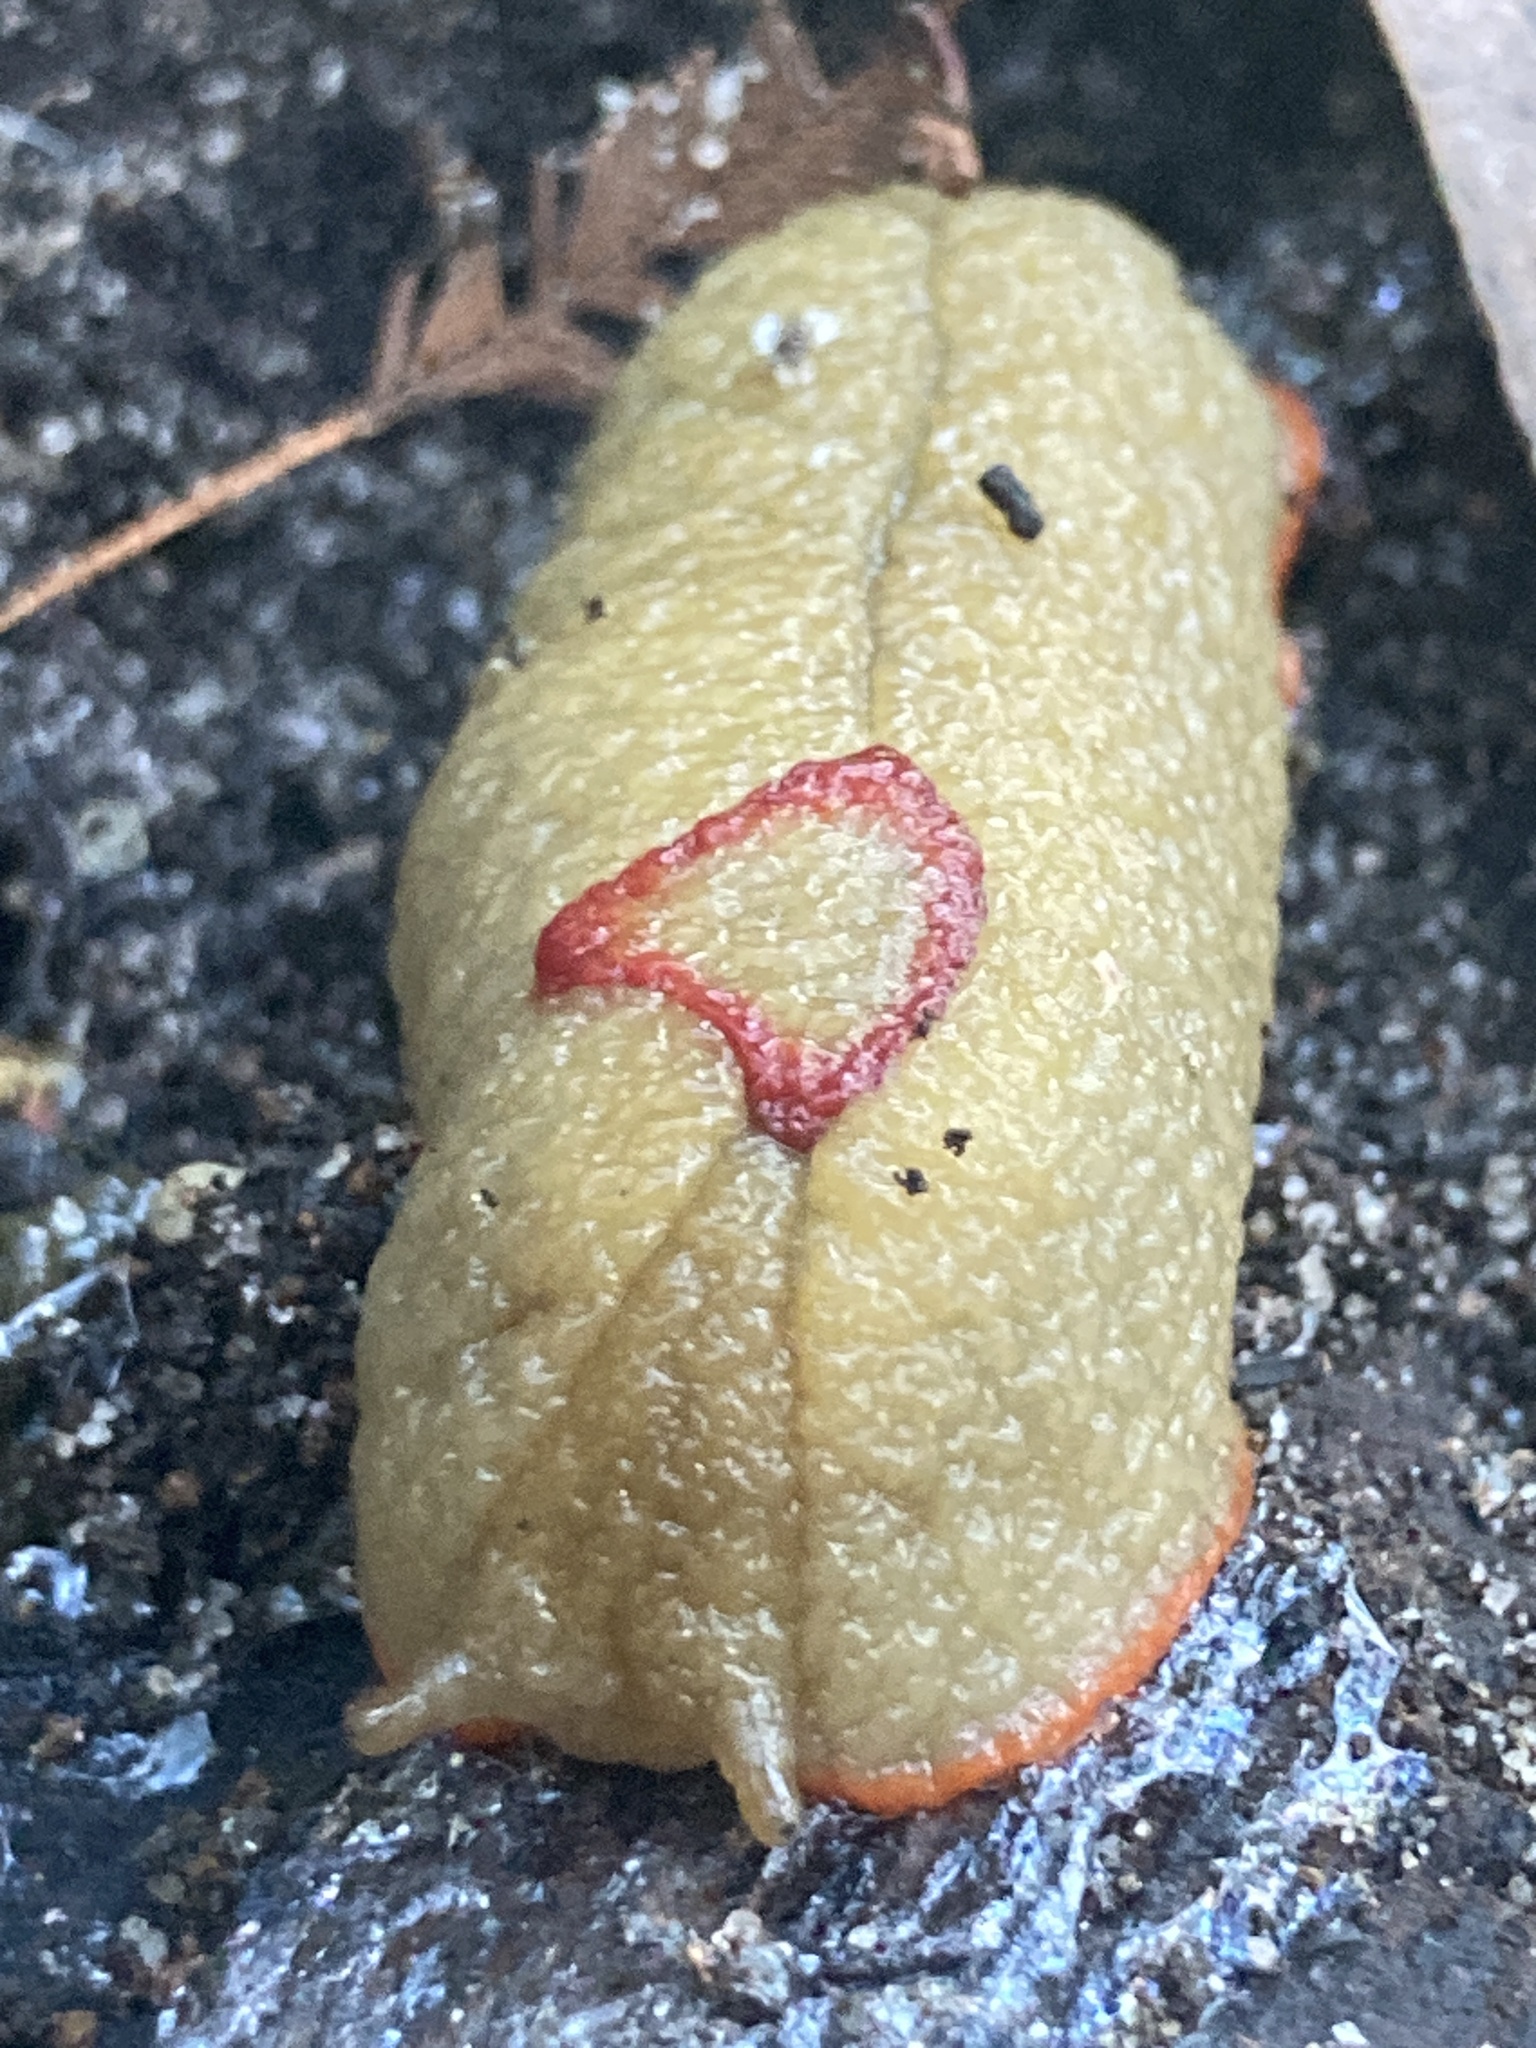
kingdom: Animalia
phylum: Mollusca
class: Gastropoda
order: Stylommatophora
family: Athoracophoridae
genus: Triboniophorus
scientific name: Triboniophorus graeffei
